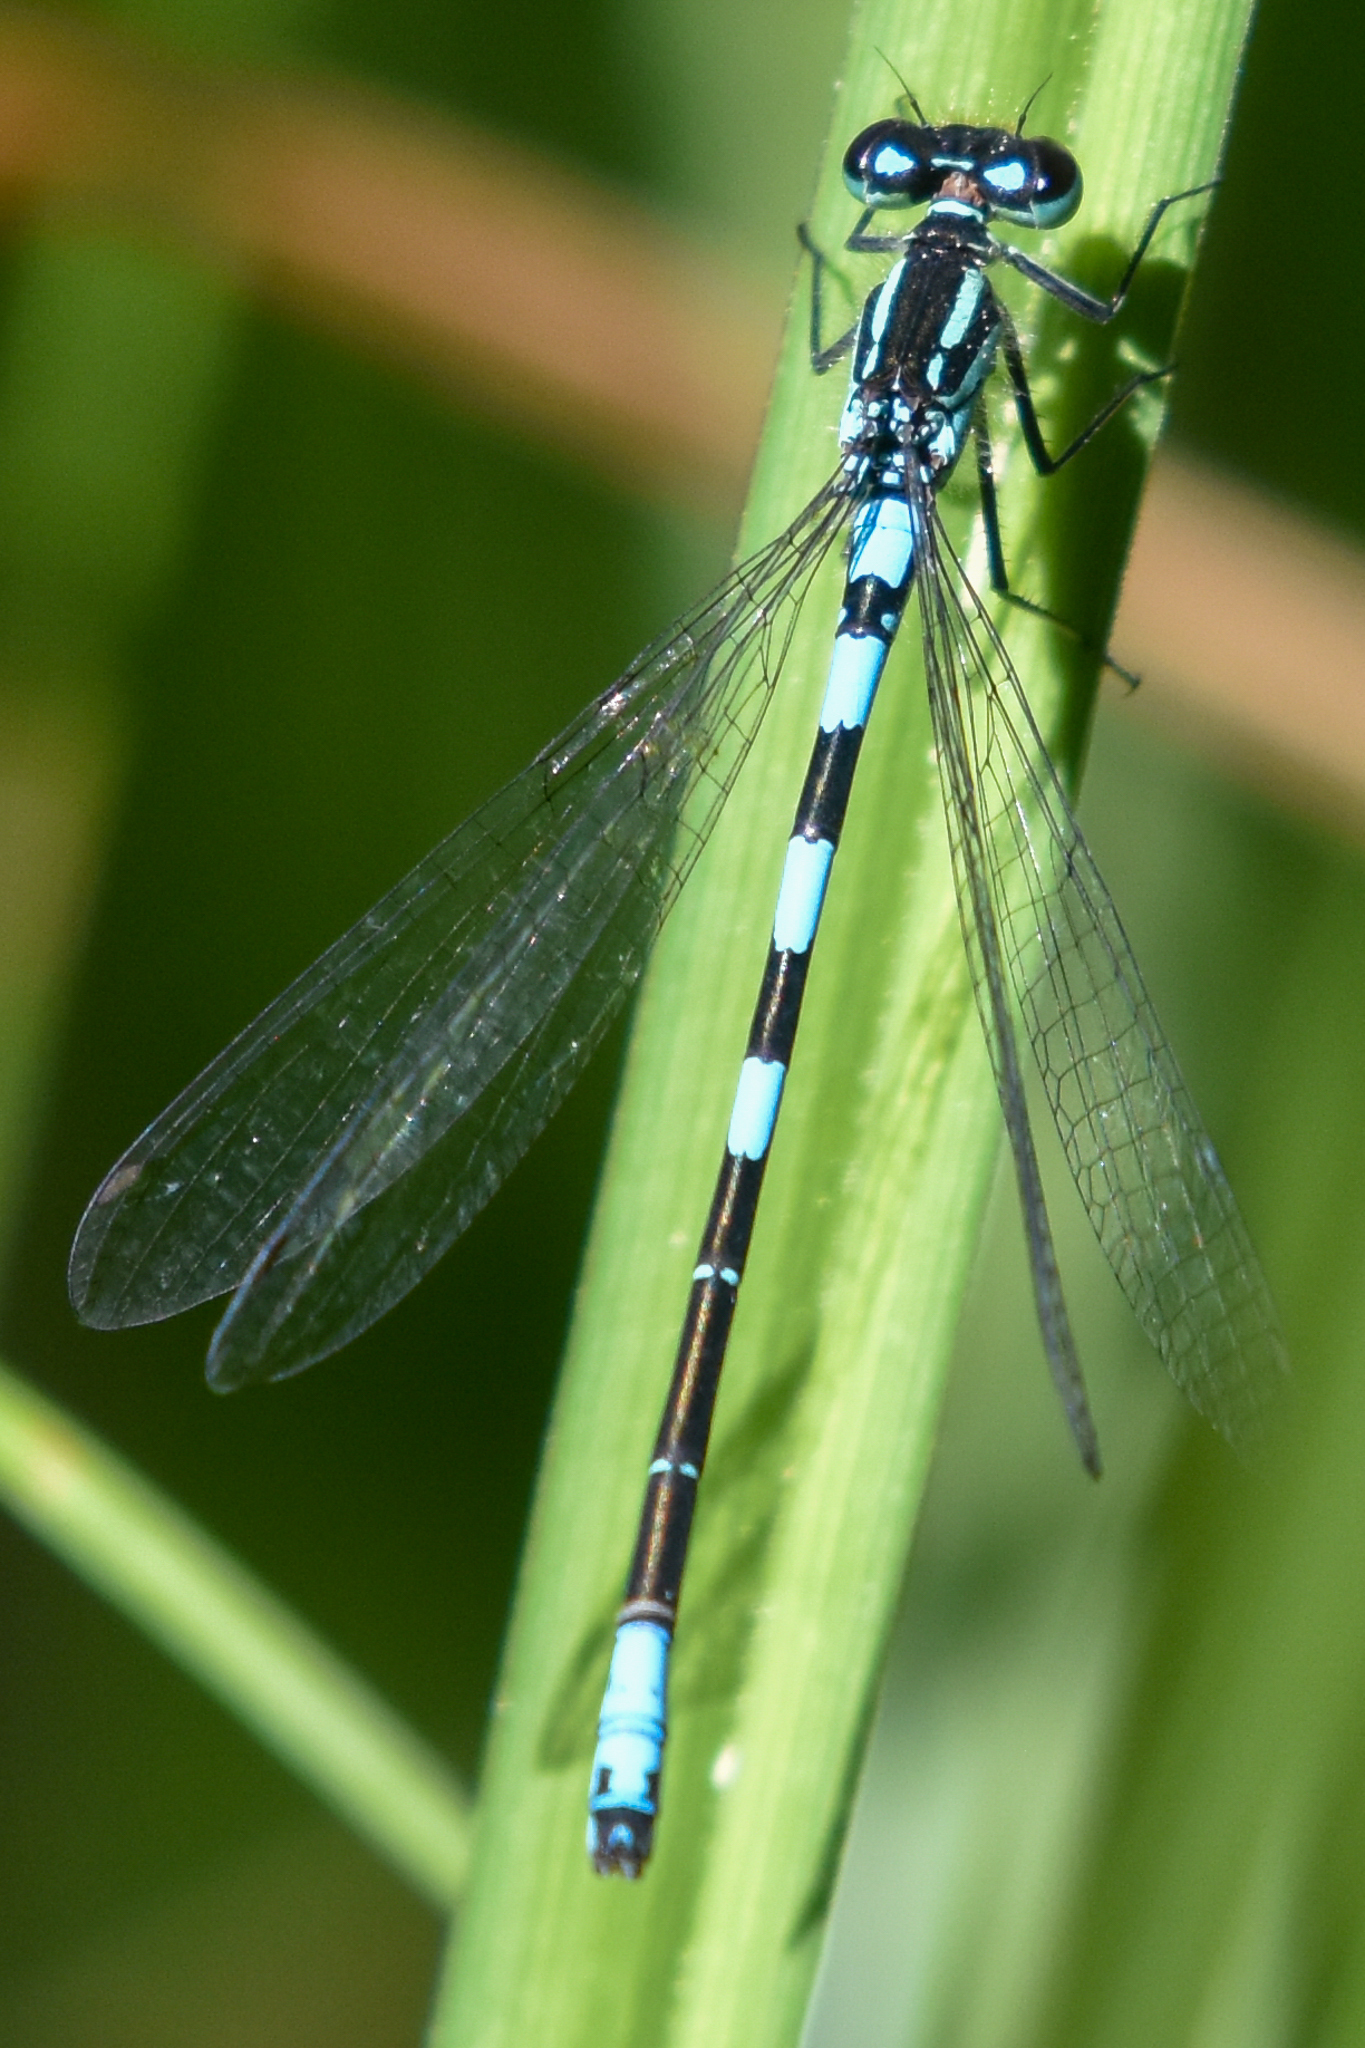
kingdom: Animalia
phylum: Arthropoda
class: Insecta
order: Odonata
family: Coenagrionidae
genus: Coenagrion
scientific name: Coenagrion resolutum
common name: Taiga bluet
